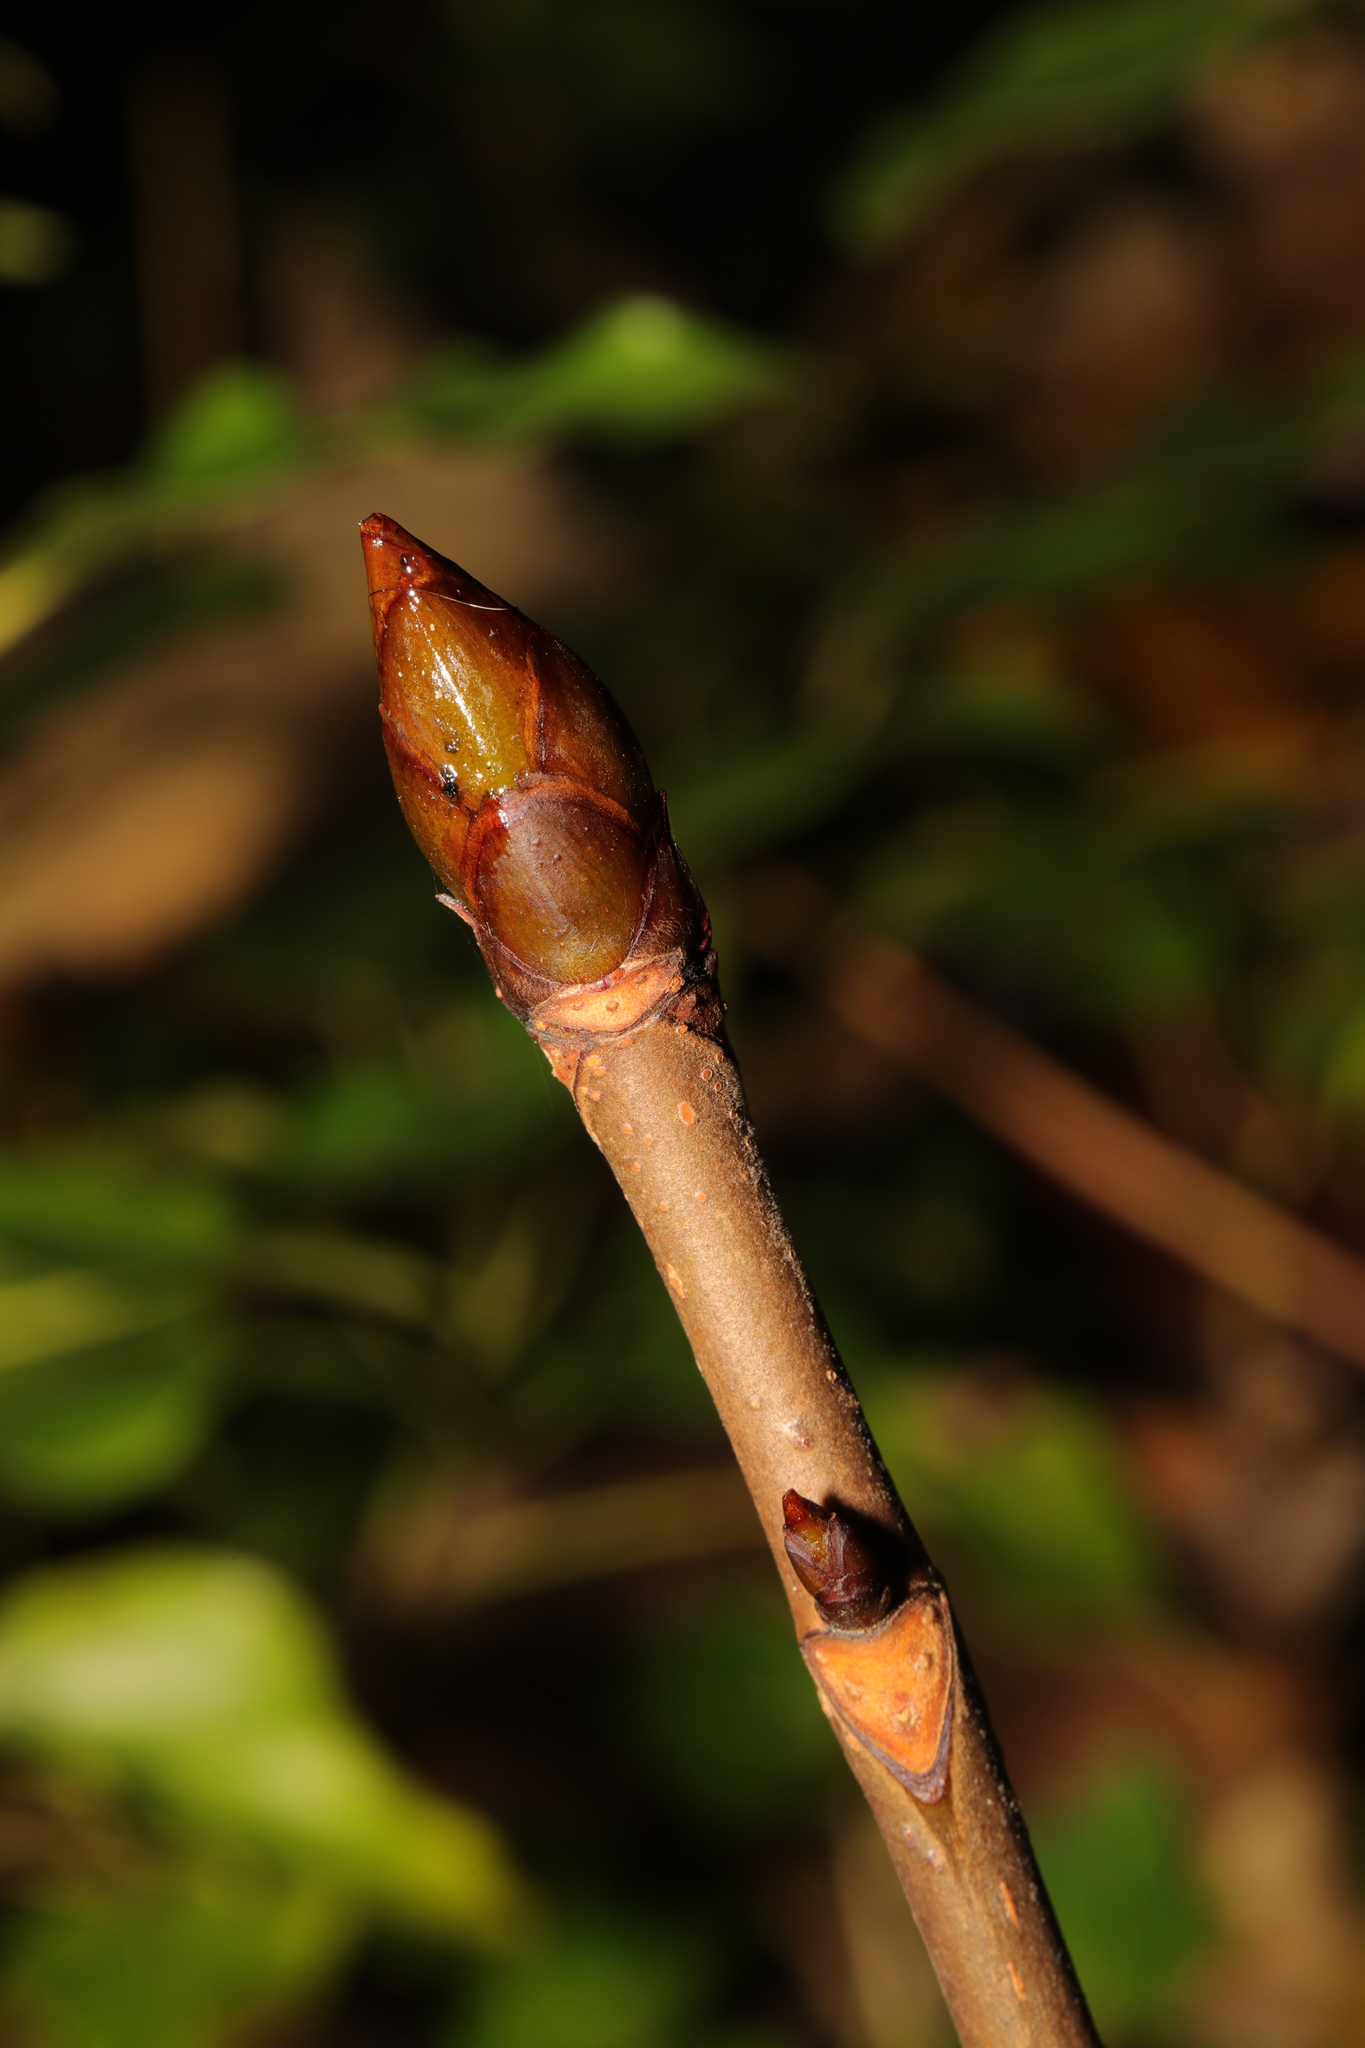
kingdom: Plantae
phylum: Tracheophyta
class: Magnoliopsida
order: Sapindales
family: Sapindaceae
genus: Aesculus
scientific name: Aesculus hippocastanum
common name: Horse-chestnut
